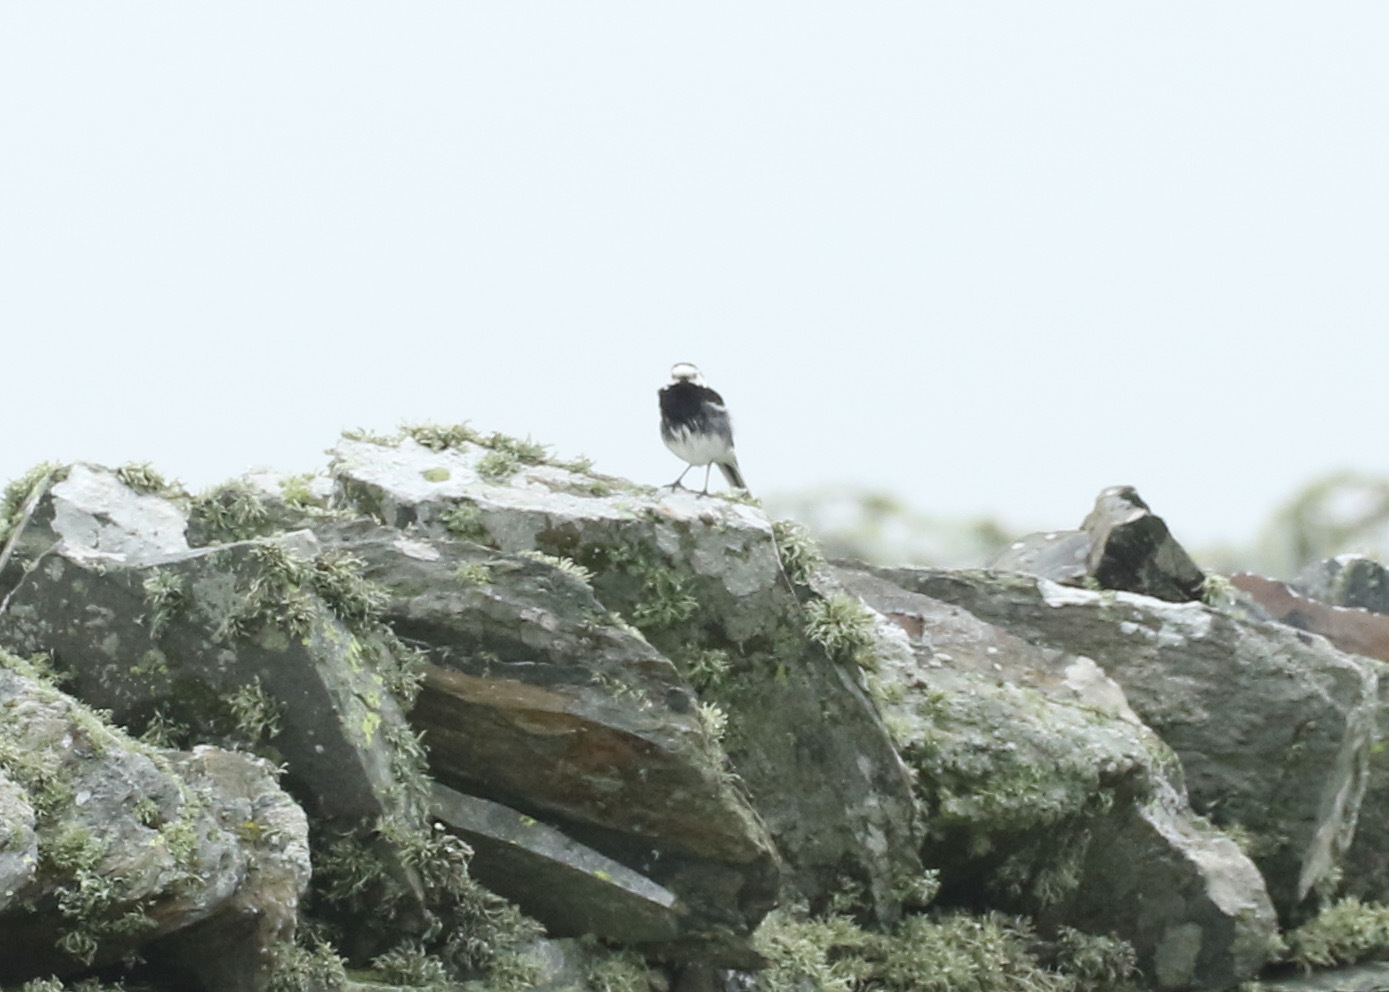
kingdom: Animalia
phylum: Chordata
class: Aves
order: Passeriformes
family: Motacillidae
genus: Motacilla
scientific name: Motacilla alba
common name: White wagtail
